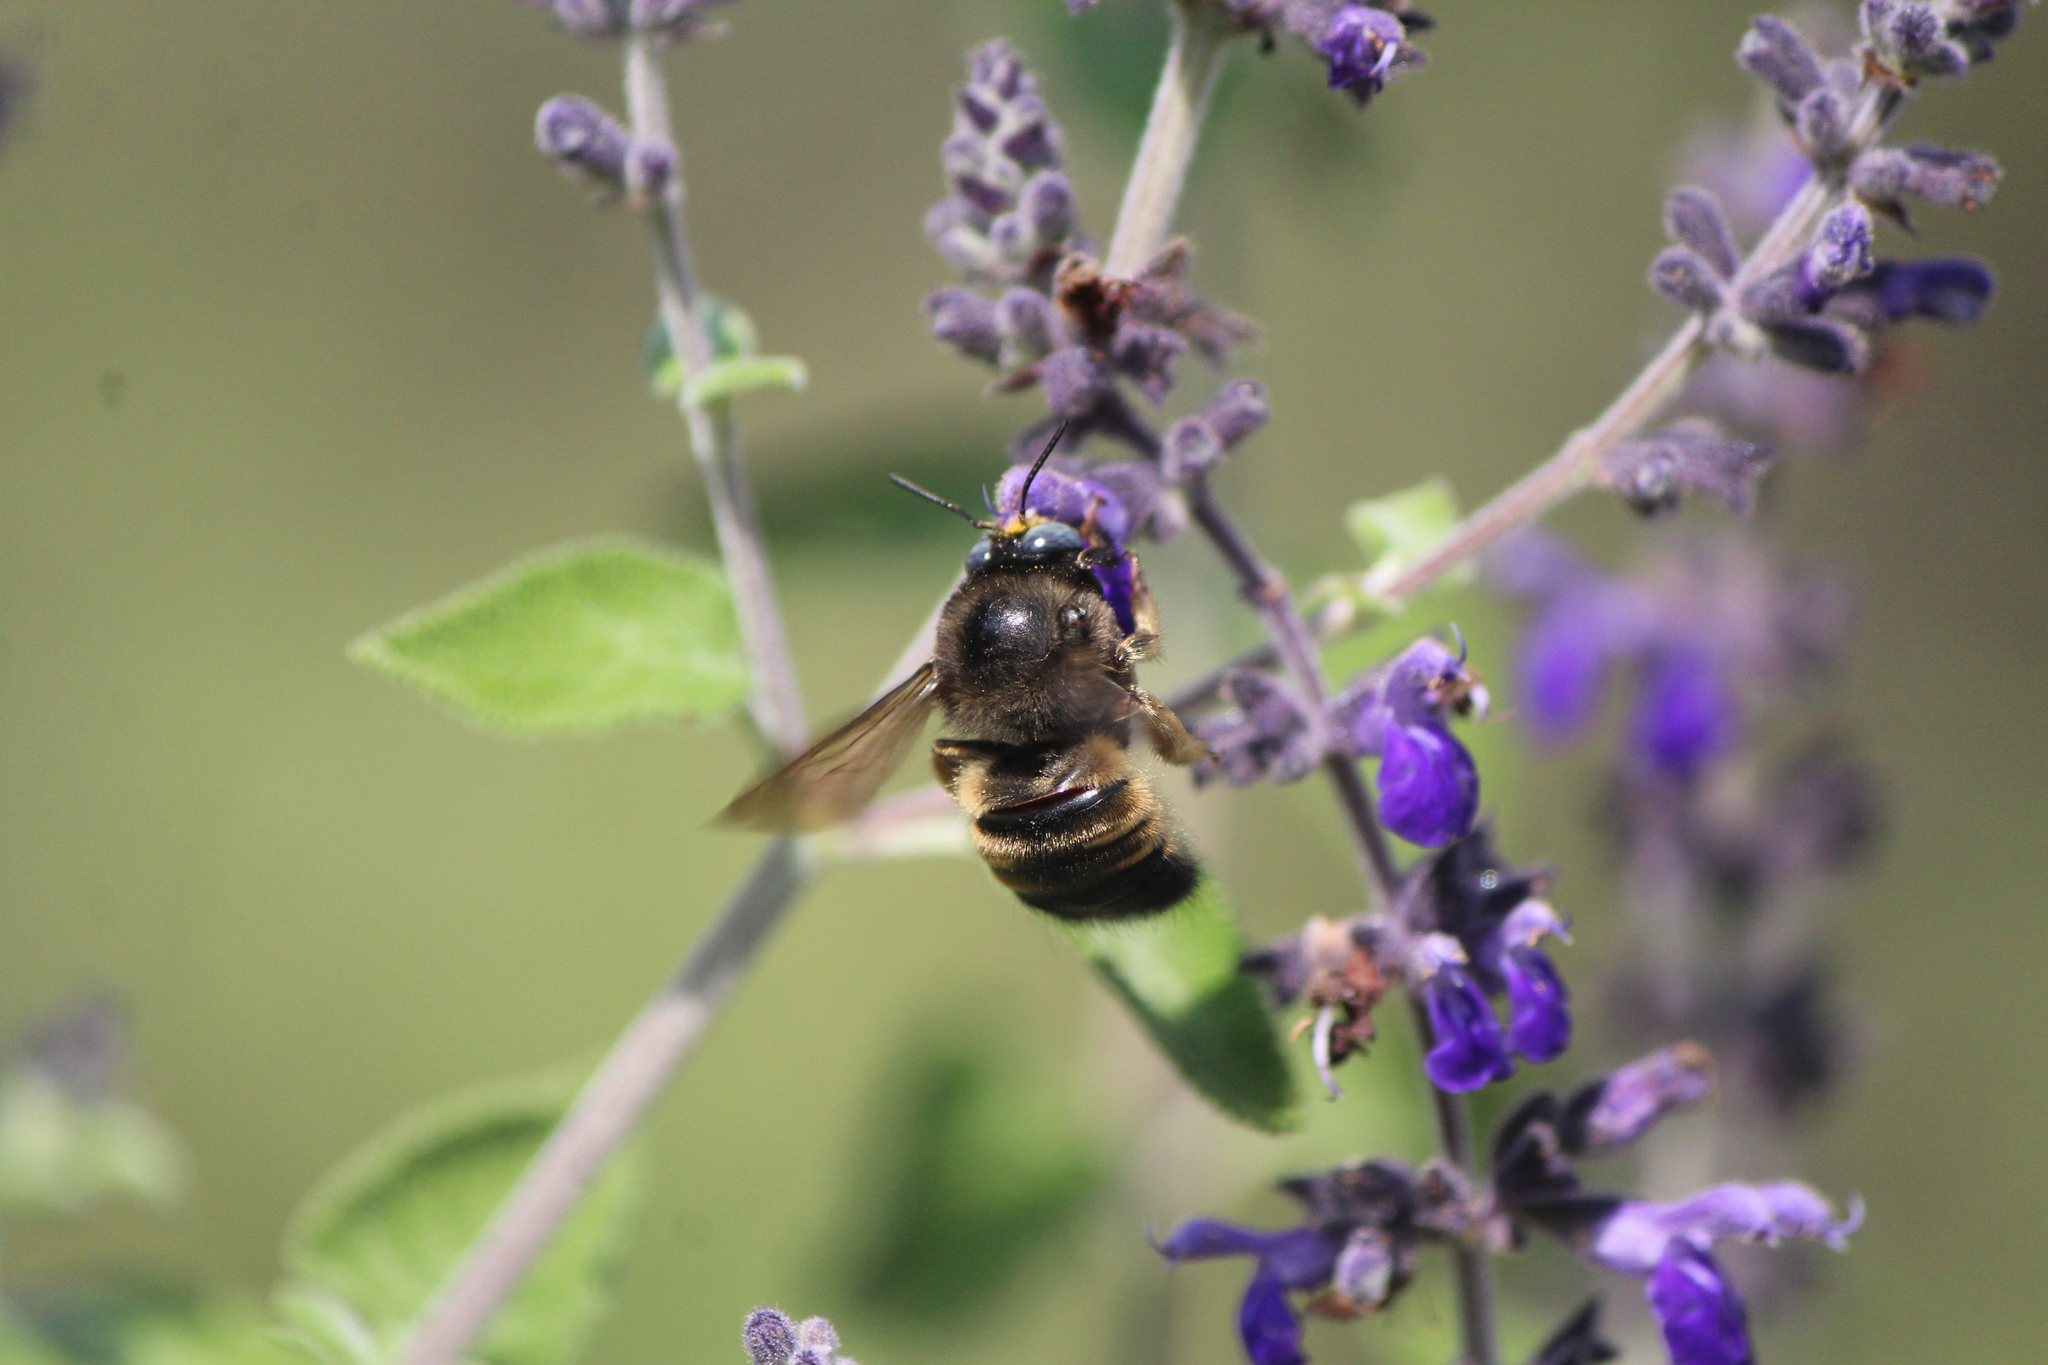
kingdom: Animalia
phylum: Arthropoda
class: Insecta
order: Hymenoptera
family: Apidae
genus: Xylocopa
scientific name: Xylocopa tabaniformis
